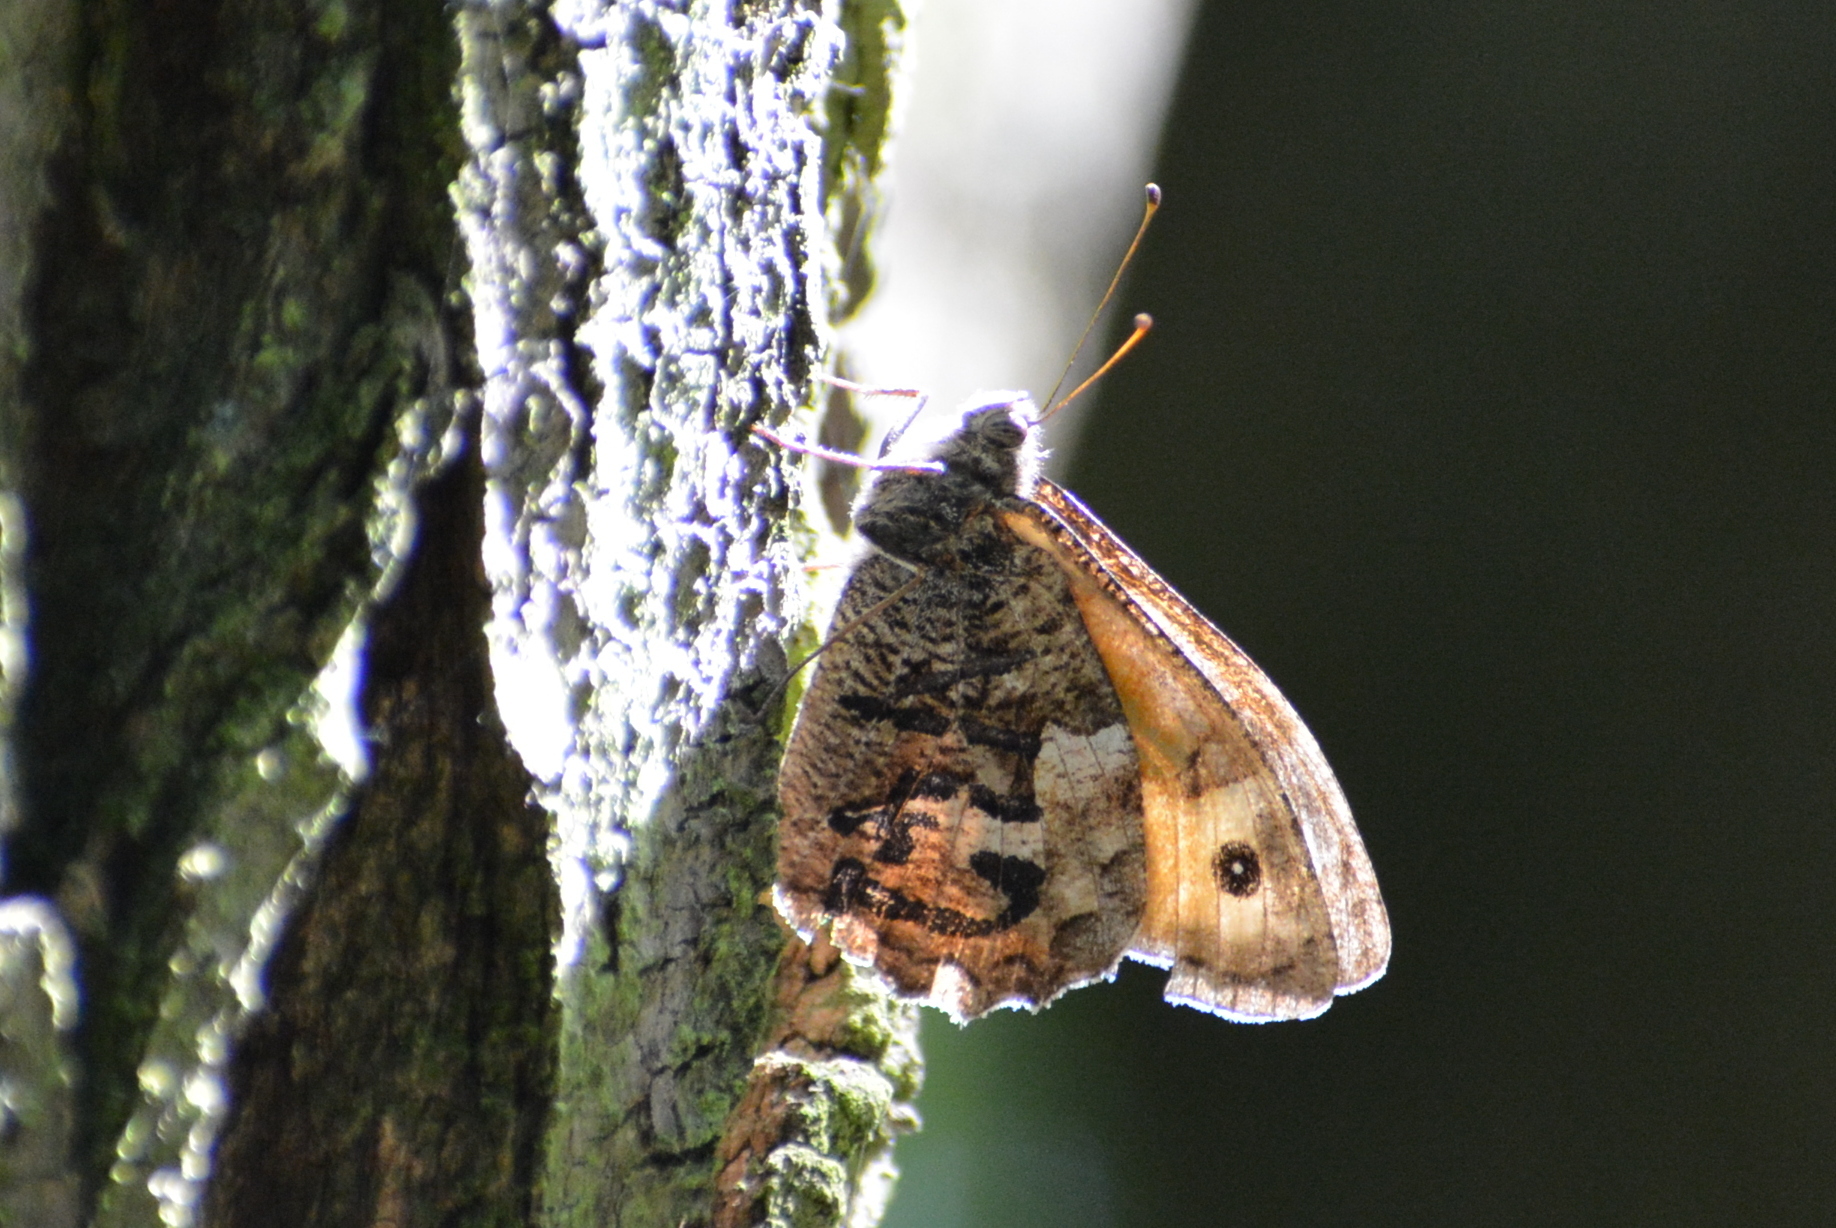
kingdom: Animalia
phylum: Arthropoda
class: Insecta
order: Lepidoptera
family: Nymphalidae
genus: Hipparchia
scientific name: Hipparchia semele
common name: Grayling
